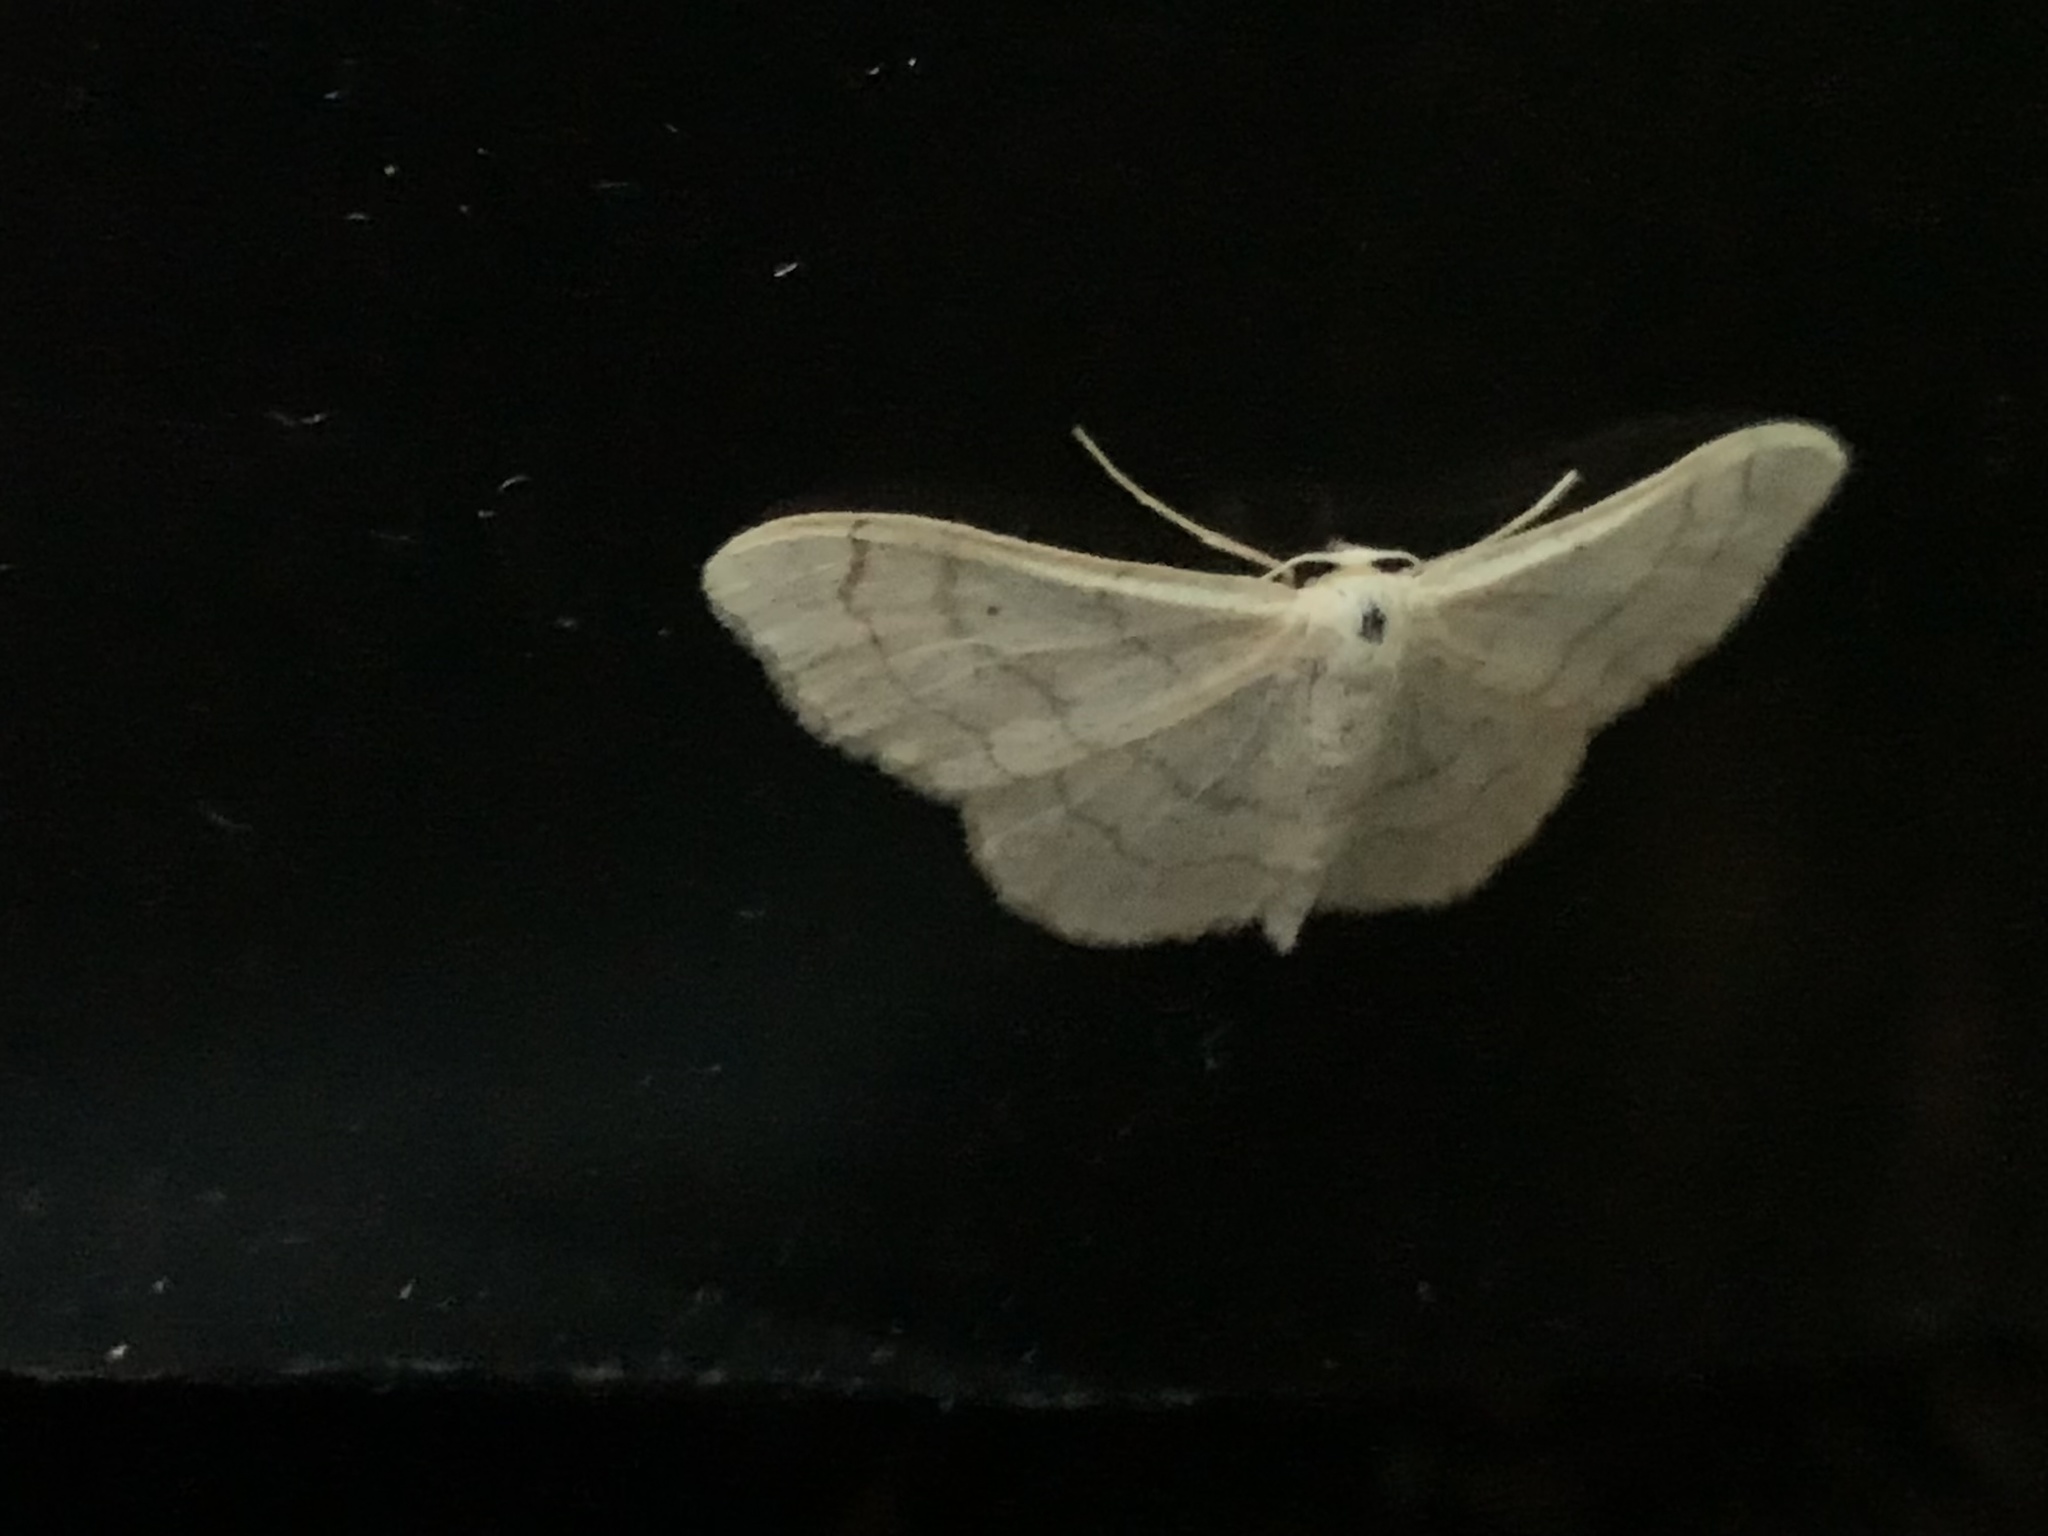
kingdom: Animalia
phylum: Arthropoda
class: Insecta
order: Lepidoptera
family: Geometridae
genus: Idaea
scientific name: Idaea aversata
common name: Riband wave
